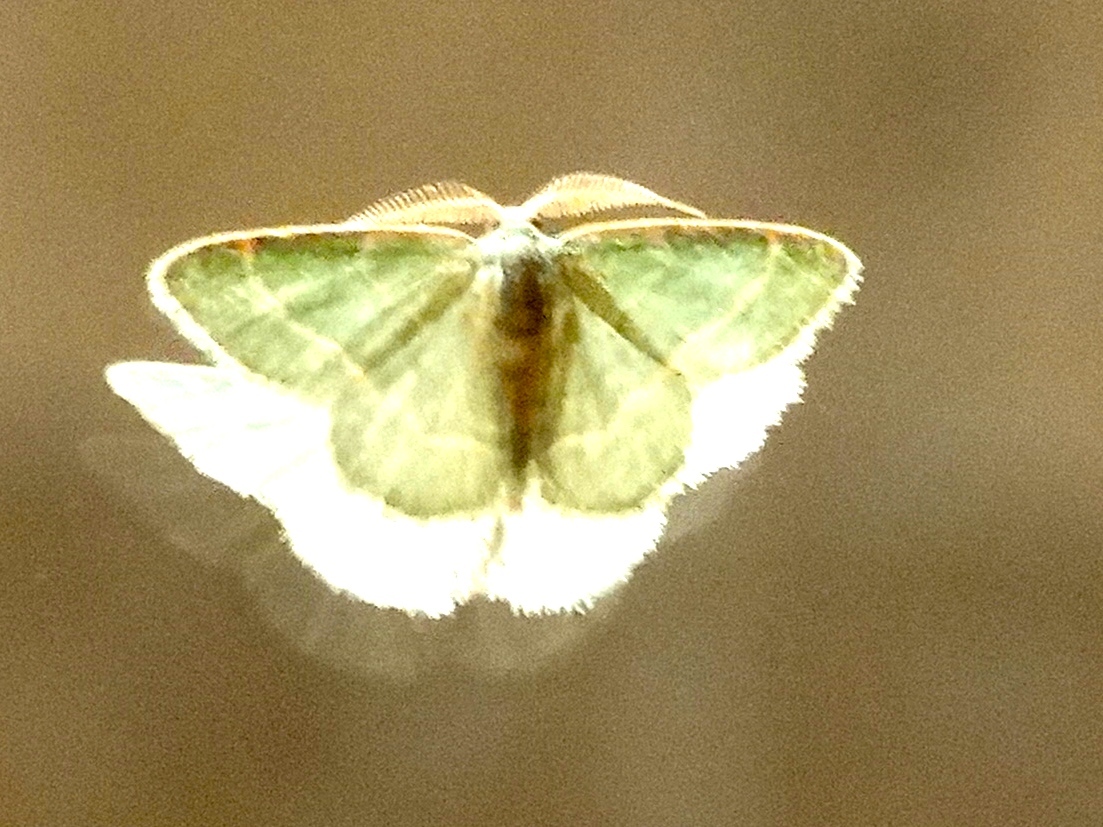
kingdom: Animalia
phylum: Arthropoda
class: Insecta
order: Lepidoptera
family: Geometridae
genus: Chlorochlamys
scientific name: Chlorochlamys
